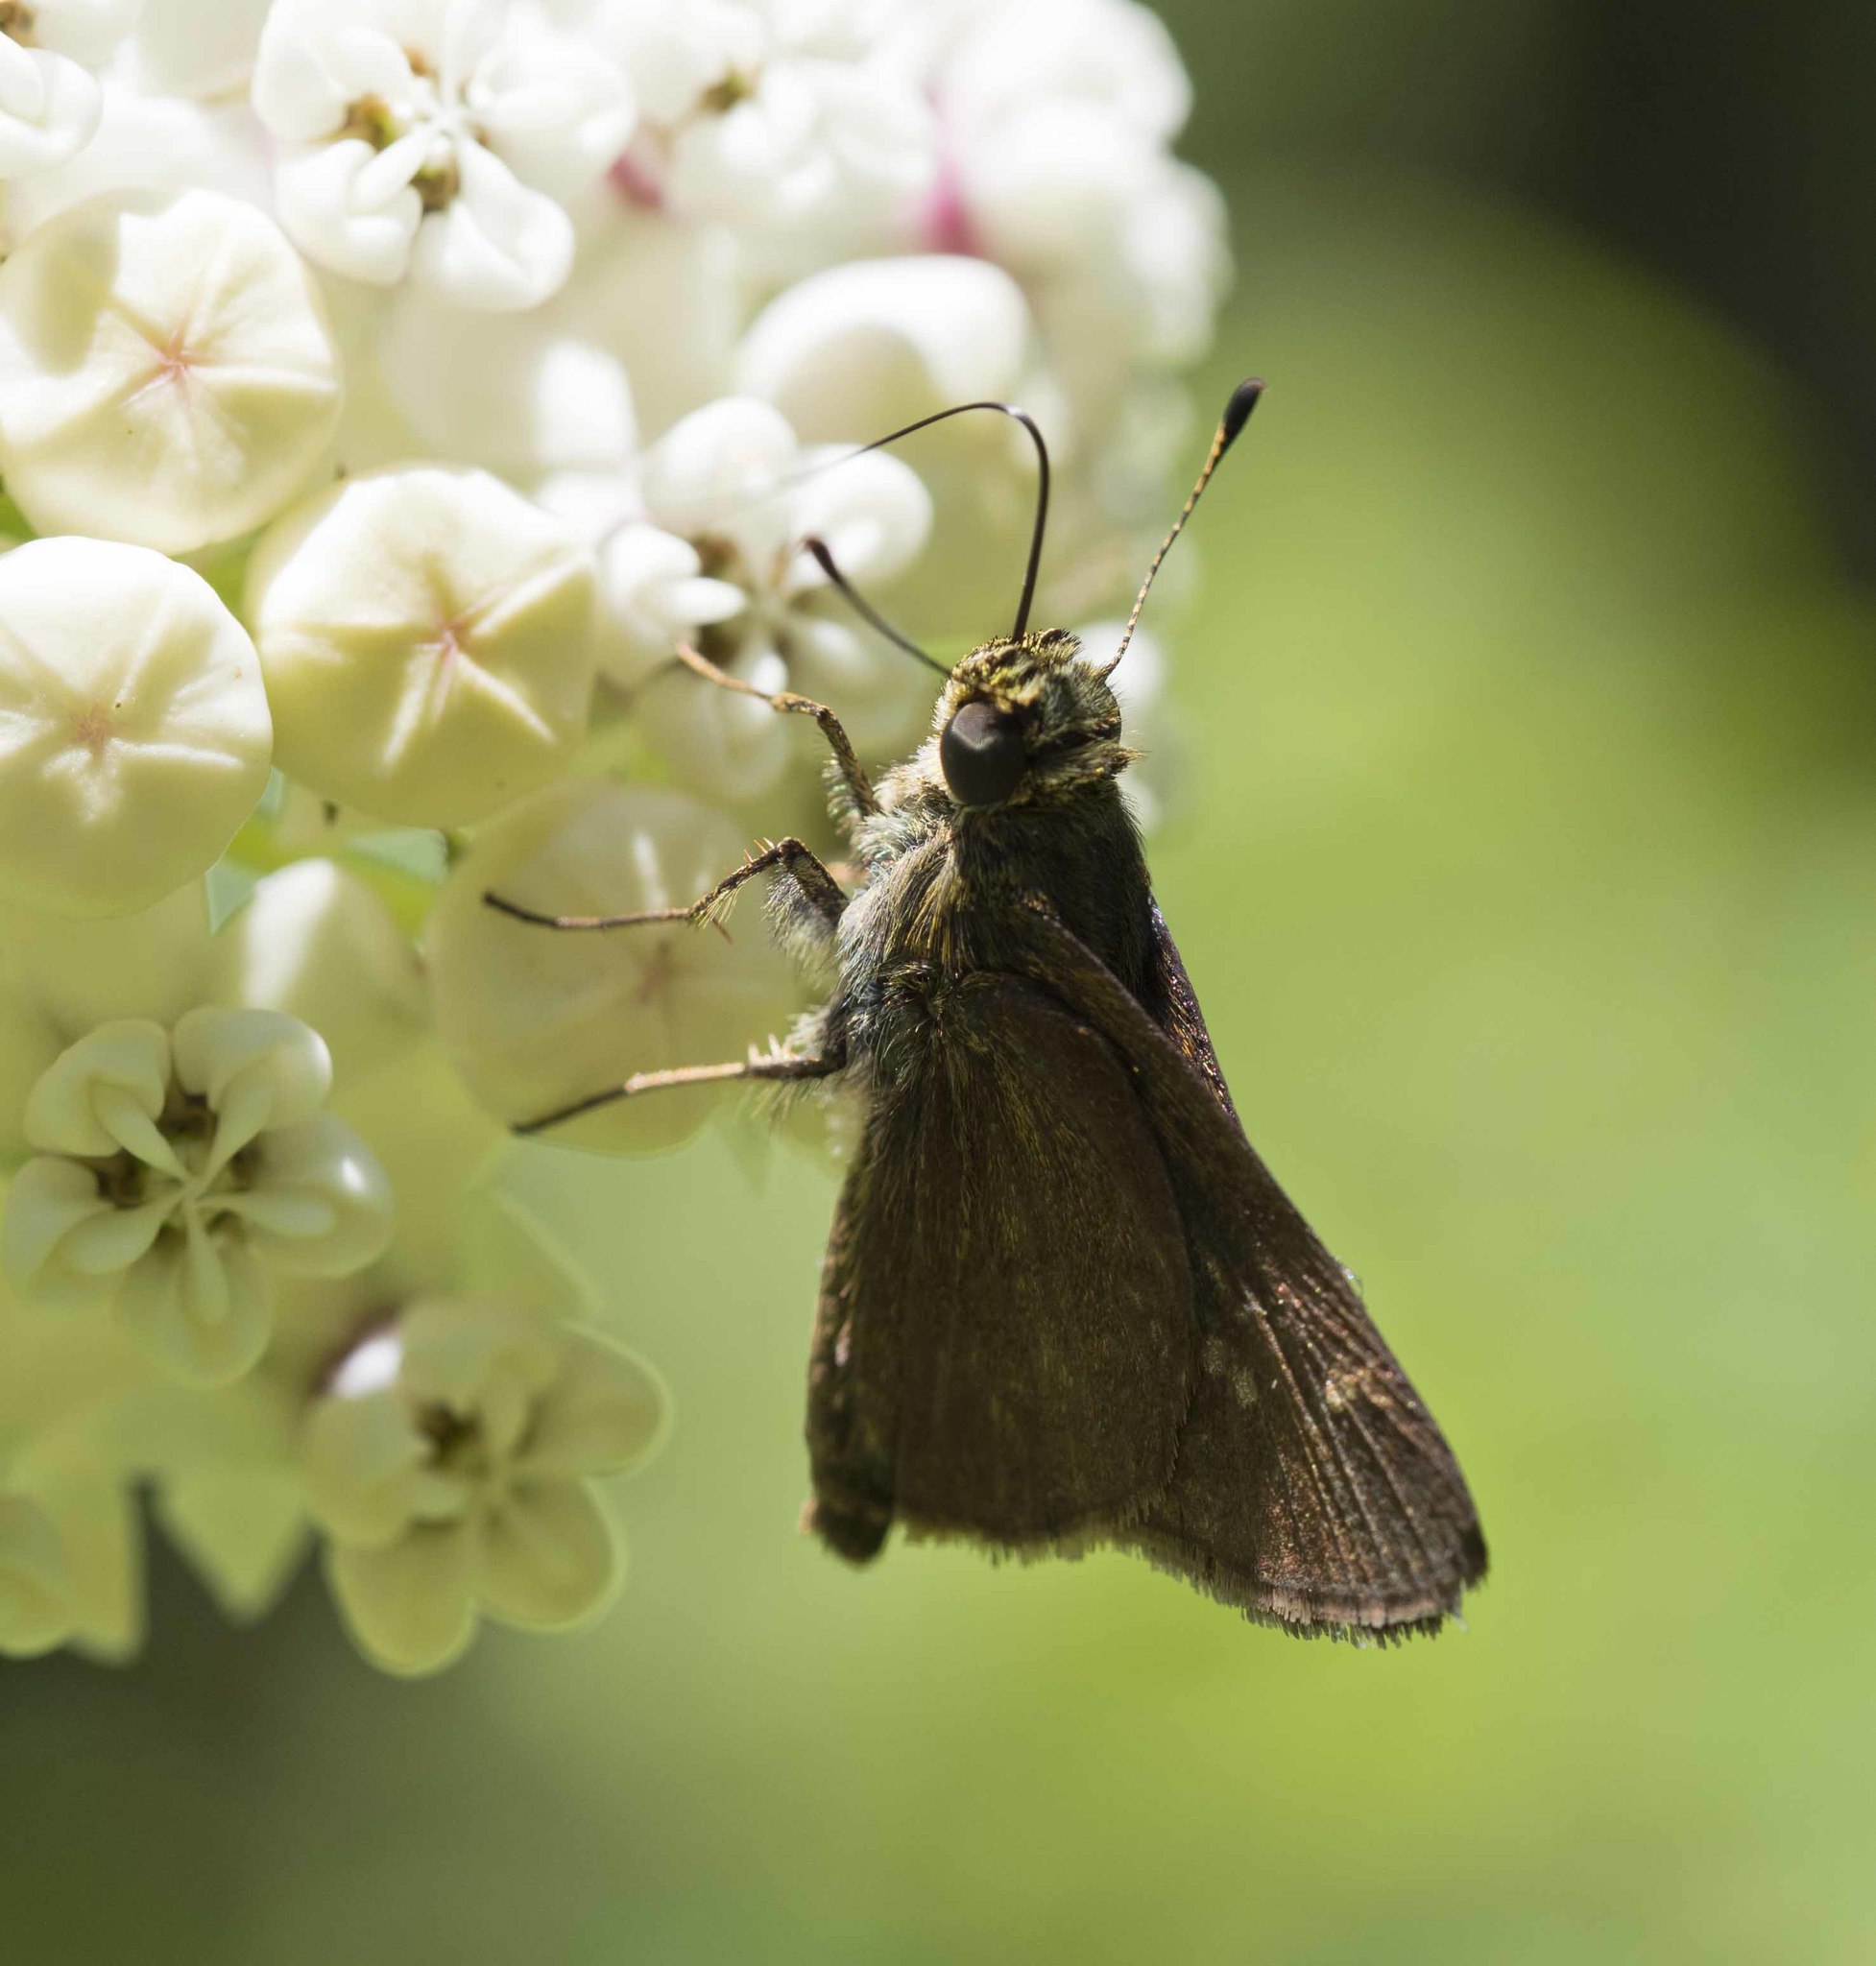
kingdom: Animalia
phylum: Arthropoda
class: Insecta
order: Lepidoptera
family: Hesperiidae
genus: Euphyes
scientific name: Euphyes vestris
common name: Dun skipper
